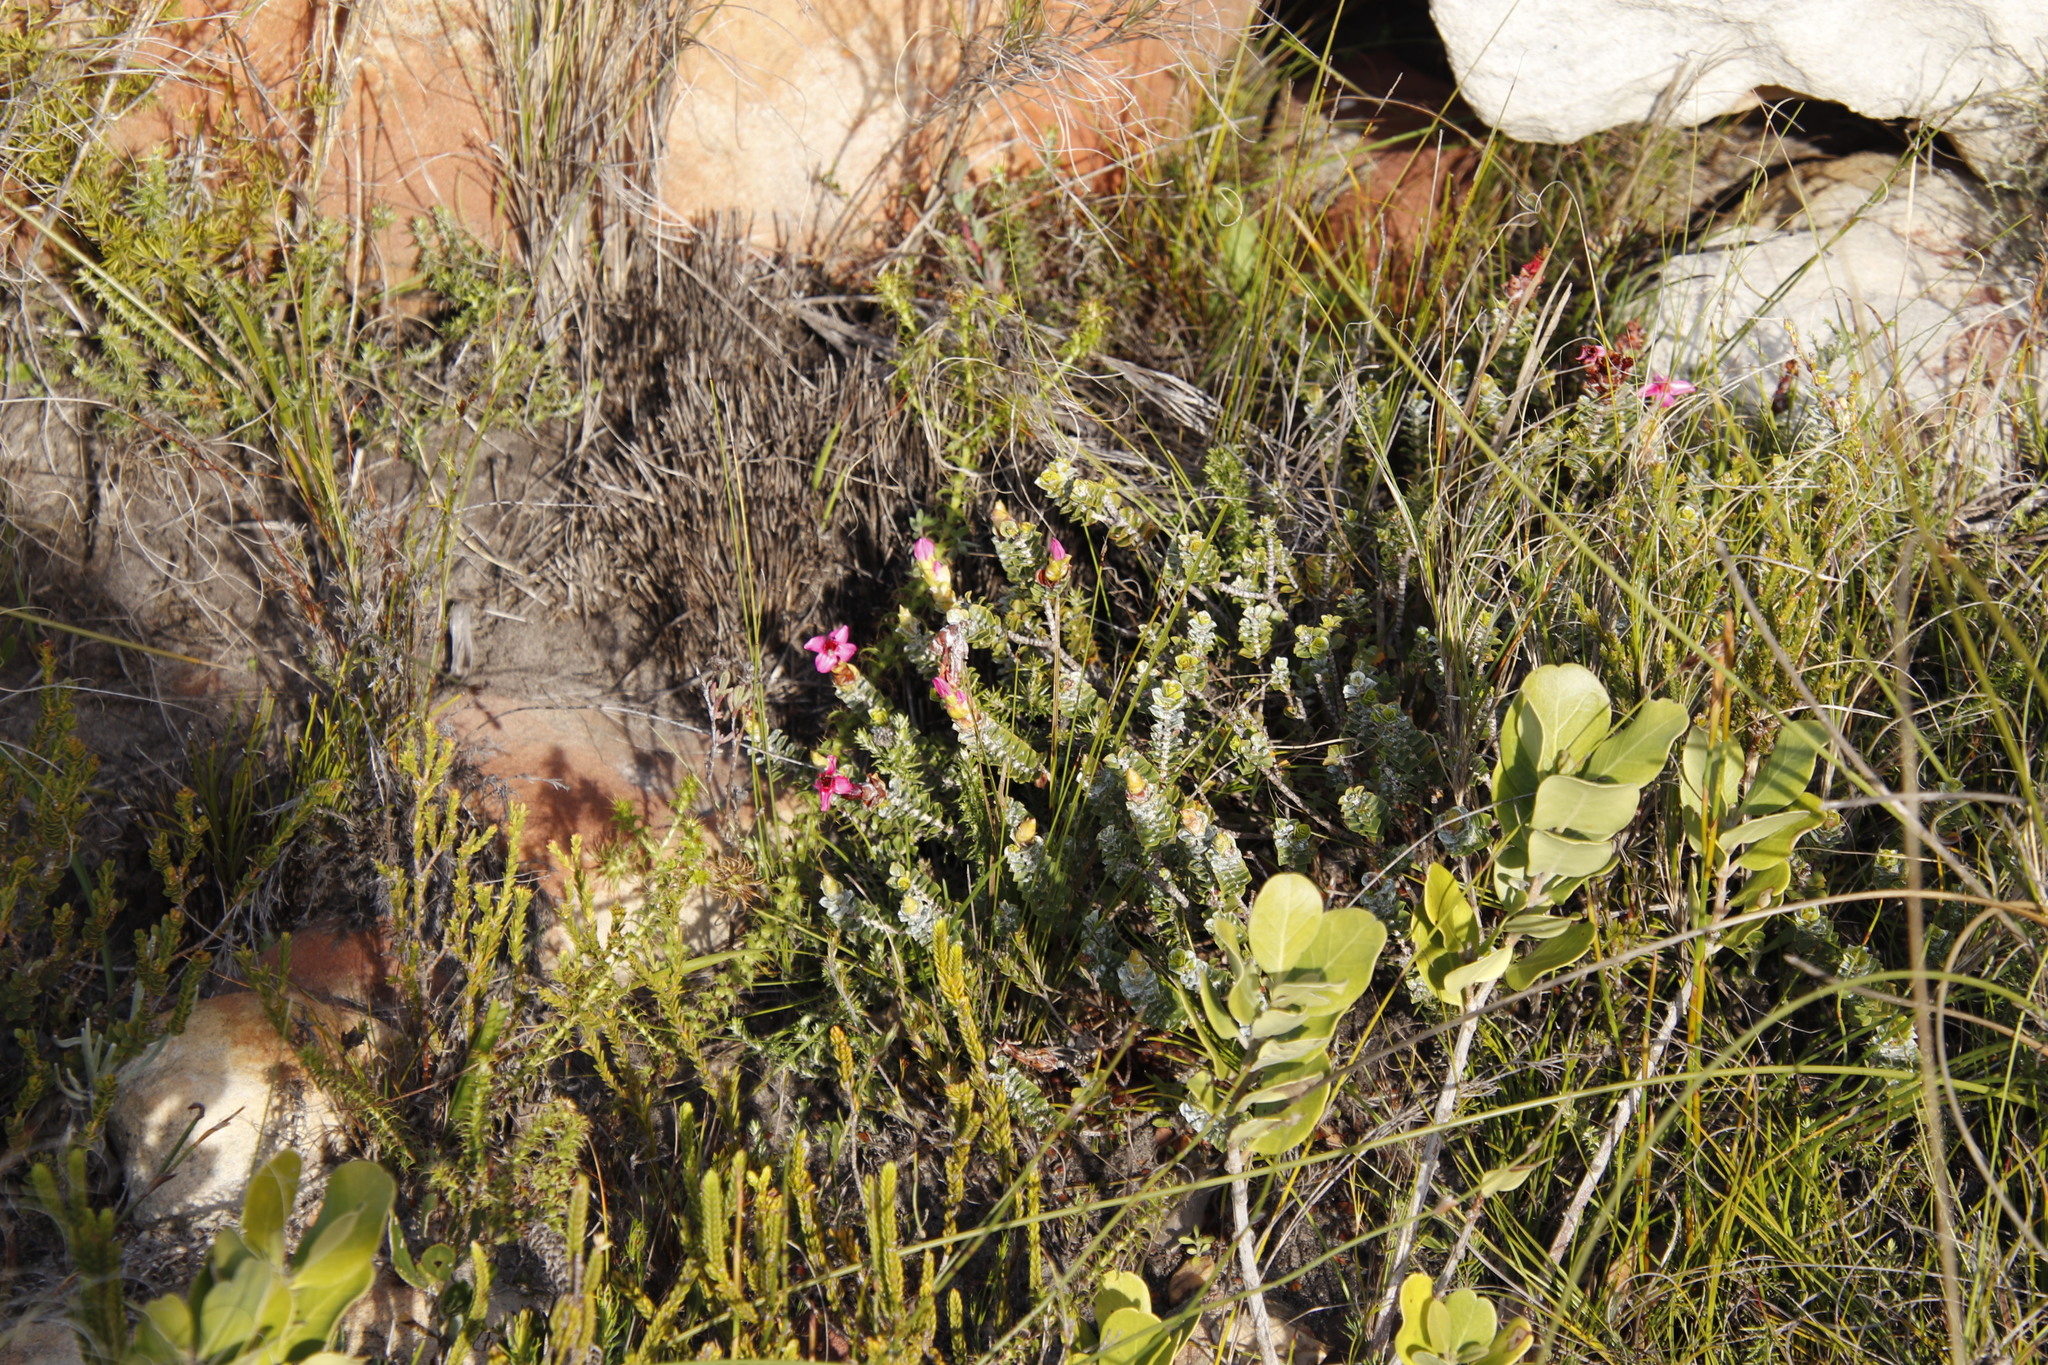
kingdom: Plantae
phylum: Tracheophyta
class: Magnoliopsida
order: Myrtales
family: Penaeaceae
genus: Saltera
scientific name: Saltera sarcocolla
